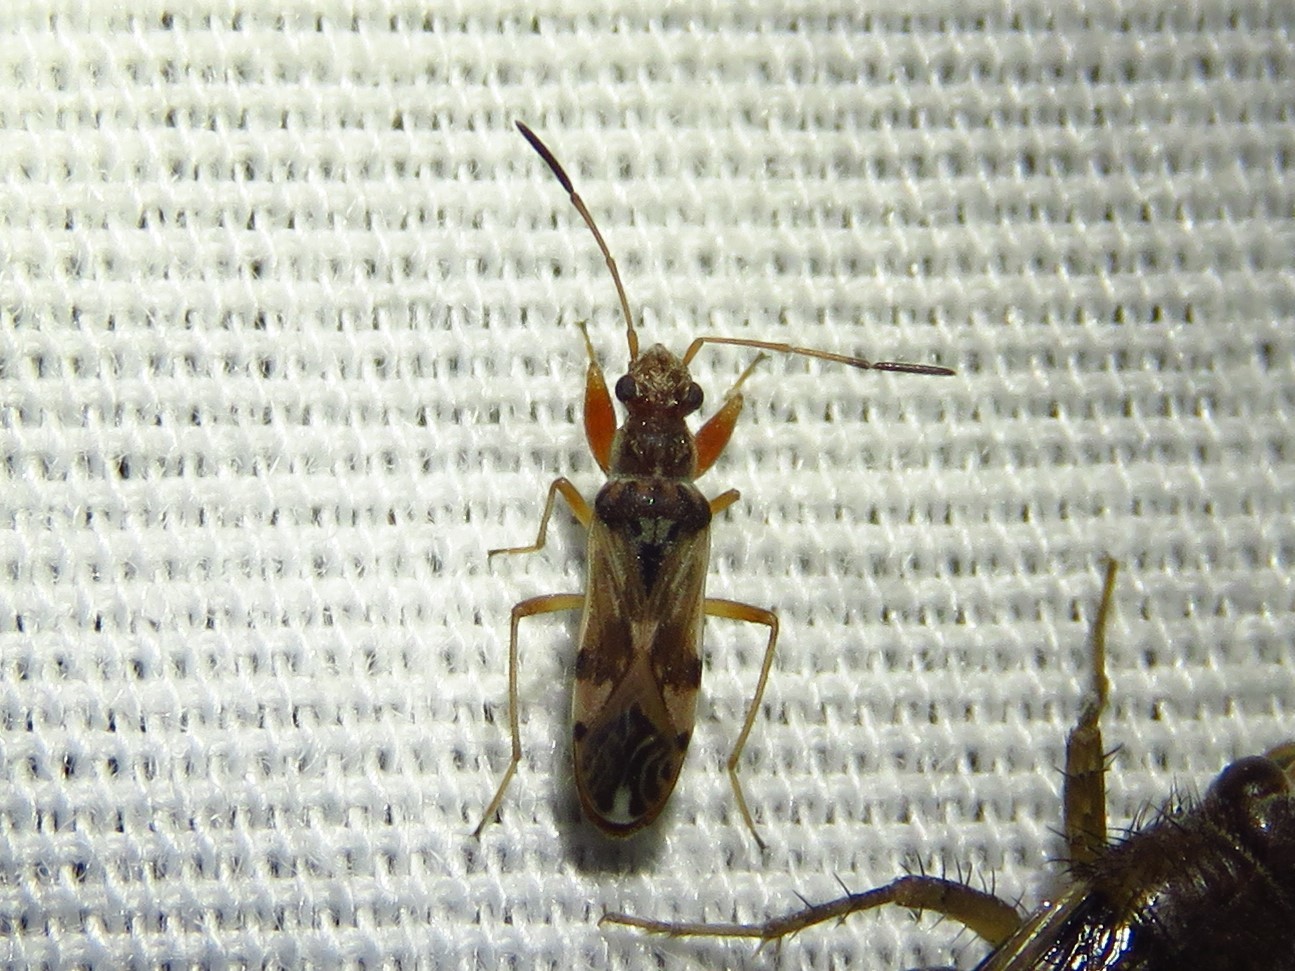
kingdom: Animalia
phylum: Arthropoda
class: Insecta
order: Hemiptera
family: Rhyparochromidae
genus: Neopamera
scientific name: Neopamera bilobata
